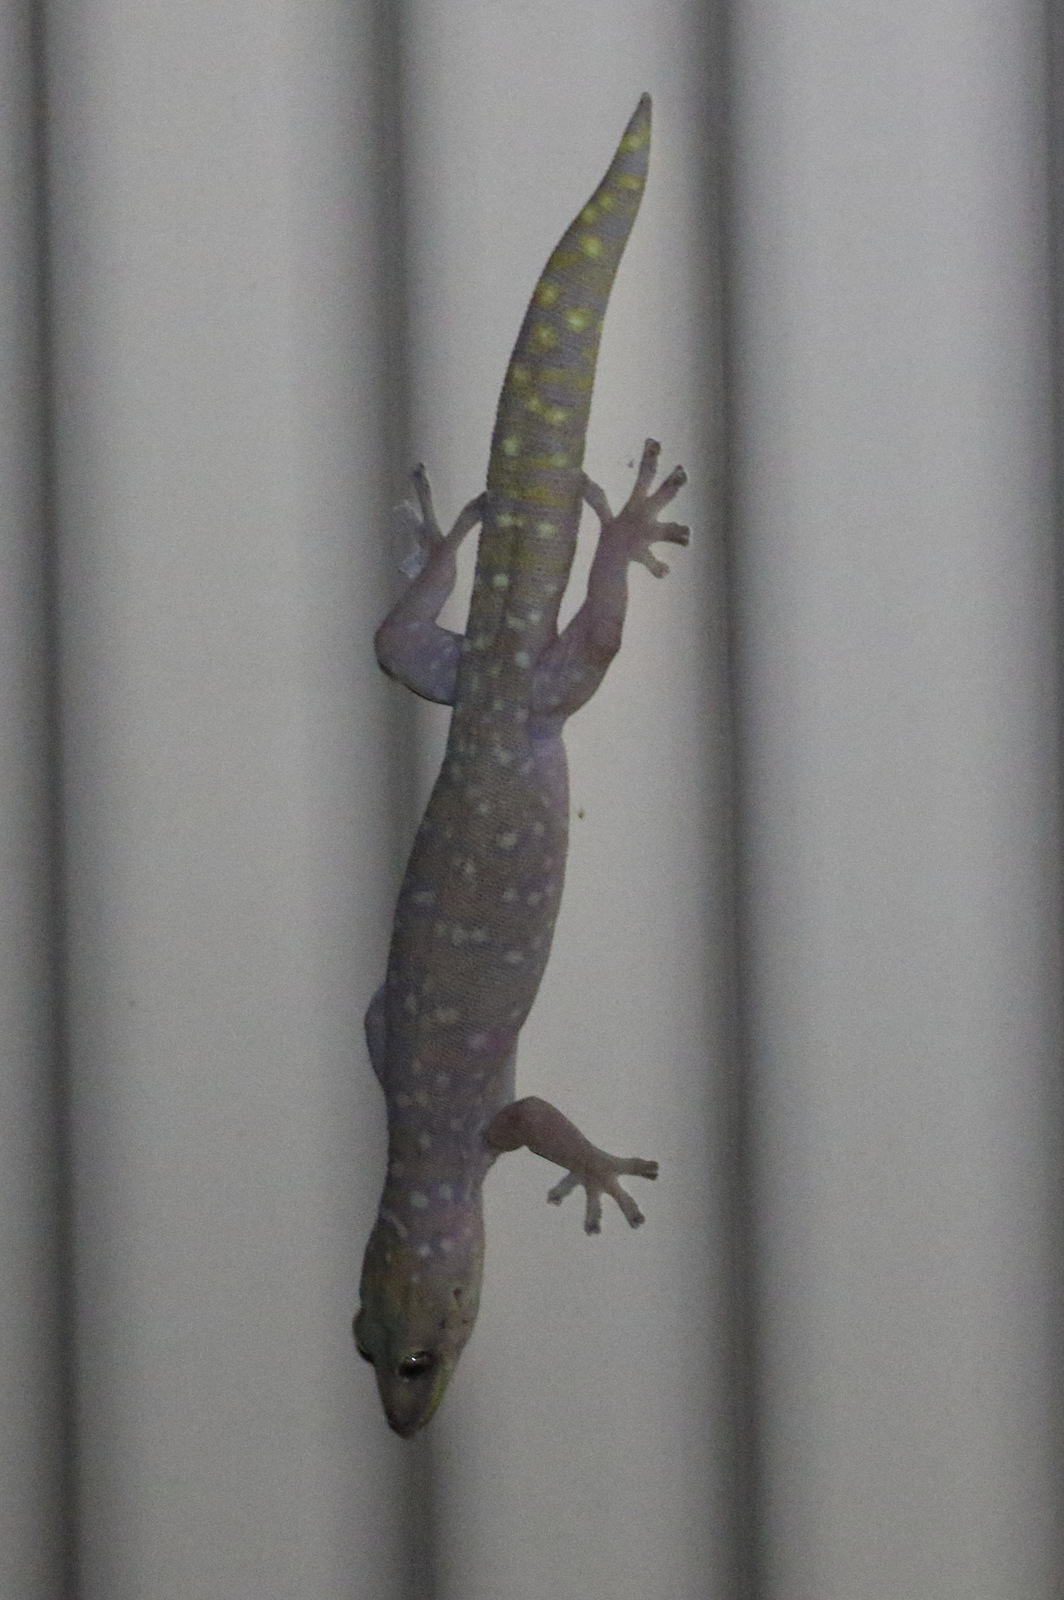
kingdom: Animalia
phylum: Chordata
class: Squamata
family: Diplodactylidae
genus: Oedura
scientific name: Oedura tryoni
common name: Southern spotted velvet gecko
